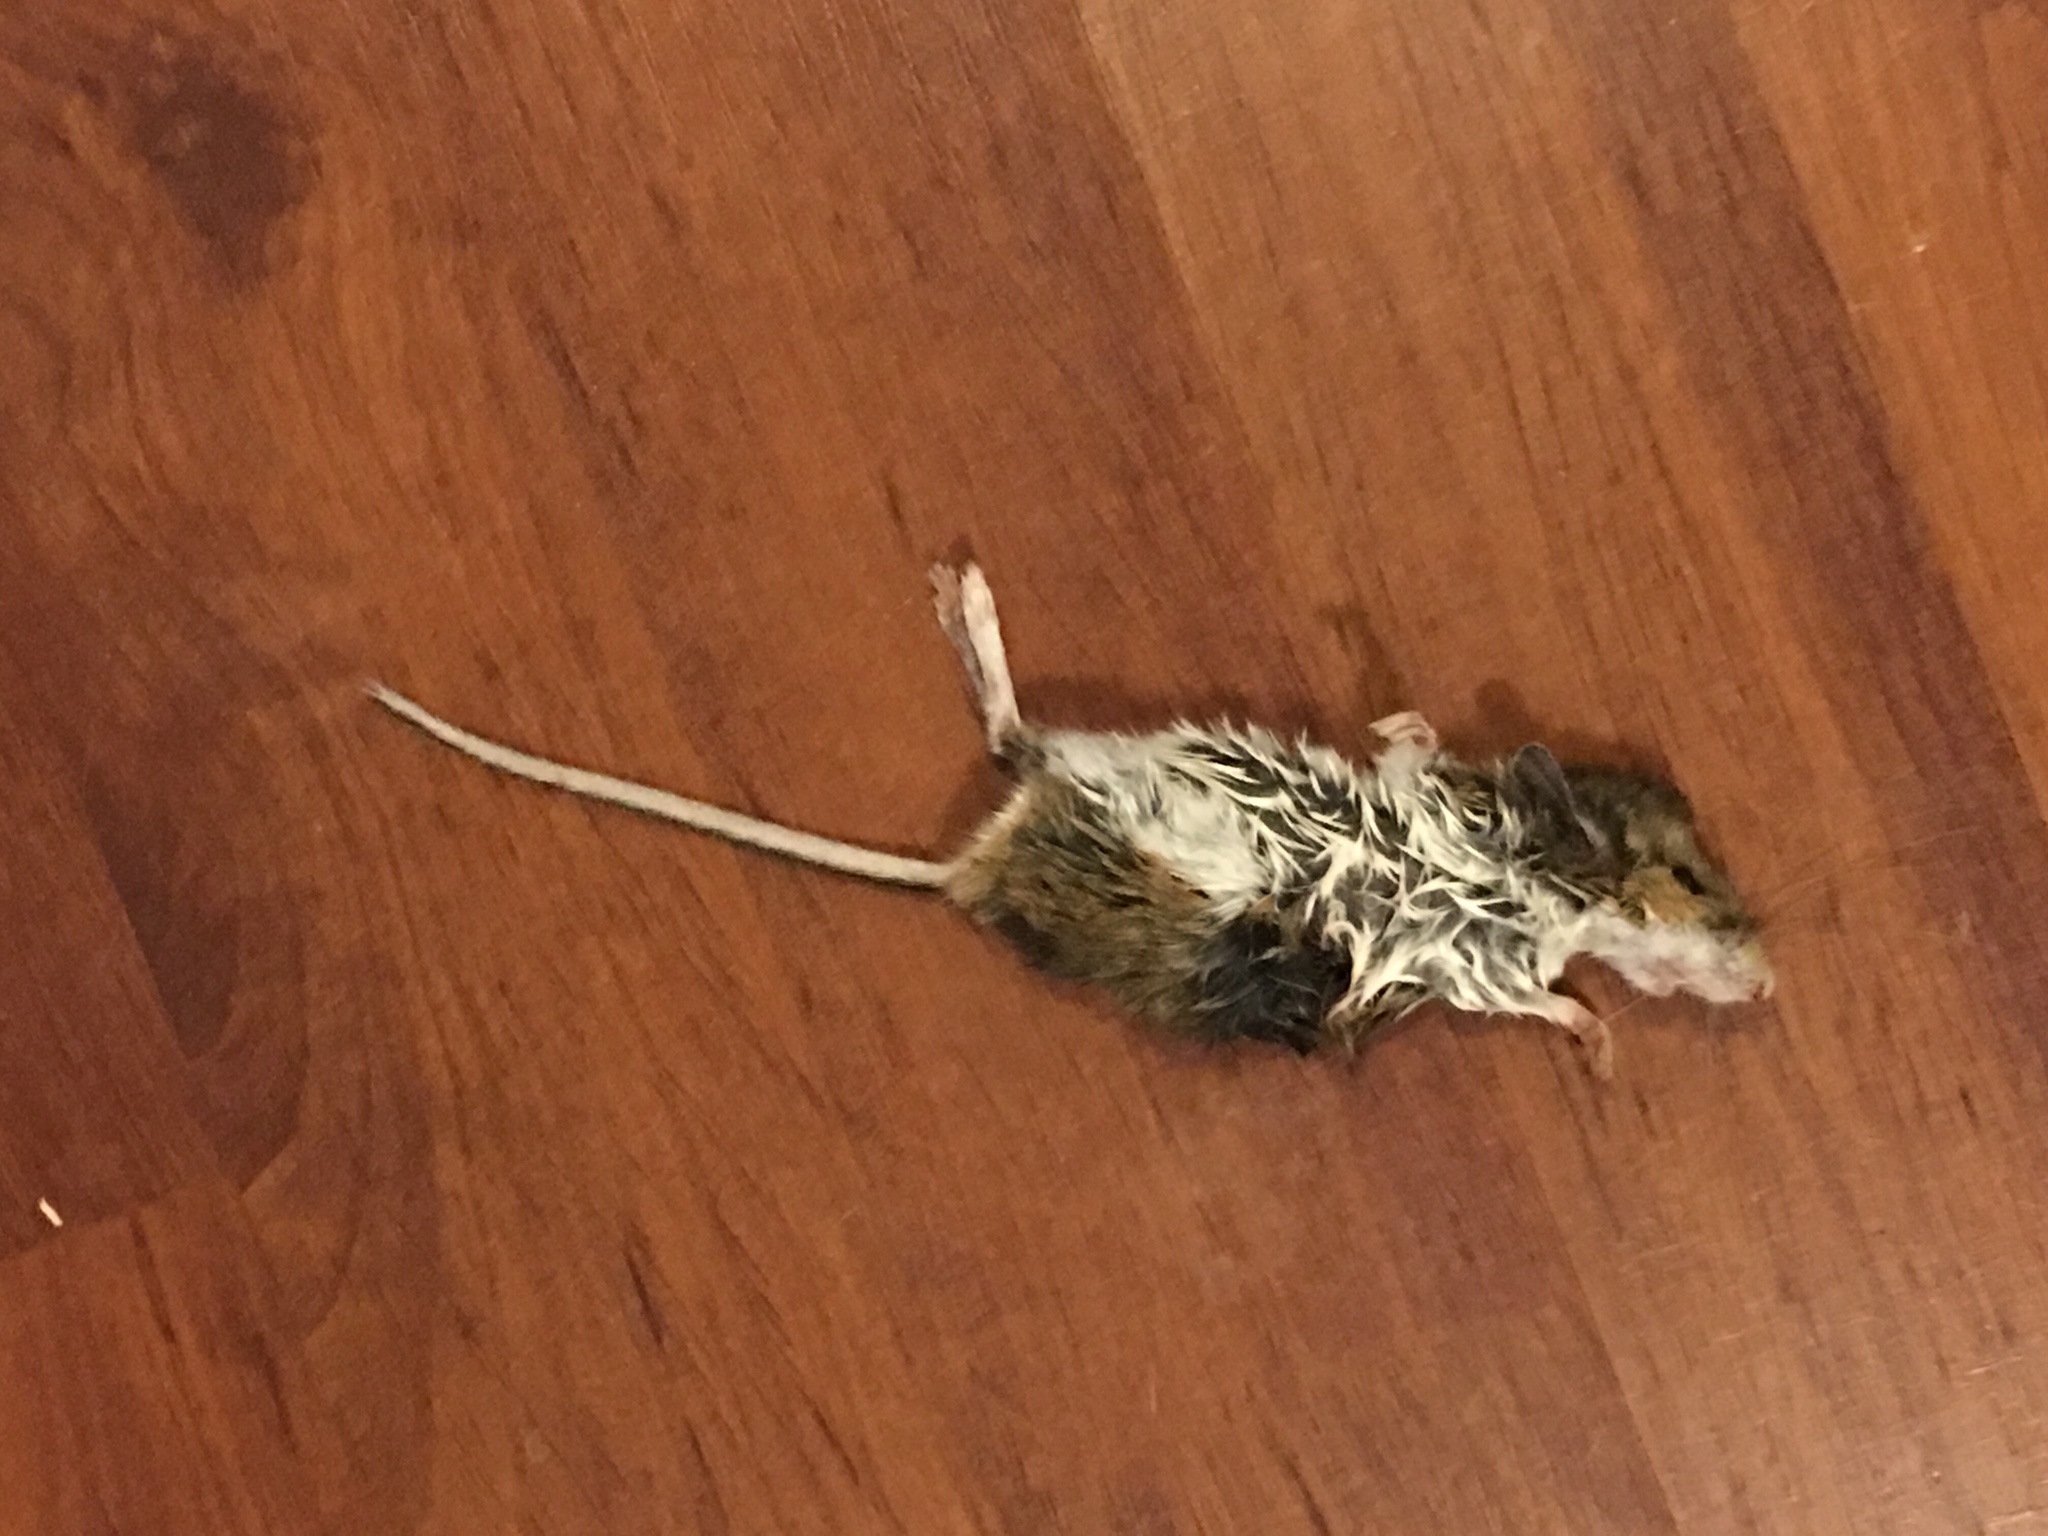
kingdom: Animalia
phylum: Chordata
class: Mammalia
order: Rodentia
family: Cricetidae
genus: Peromyscus
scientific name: Peromyscus leucopus
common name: White-footed deermouse
